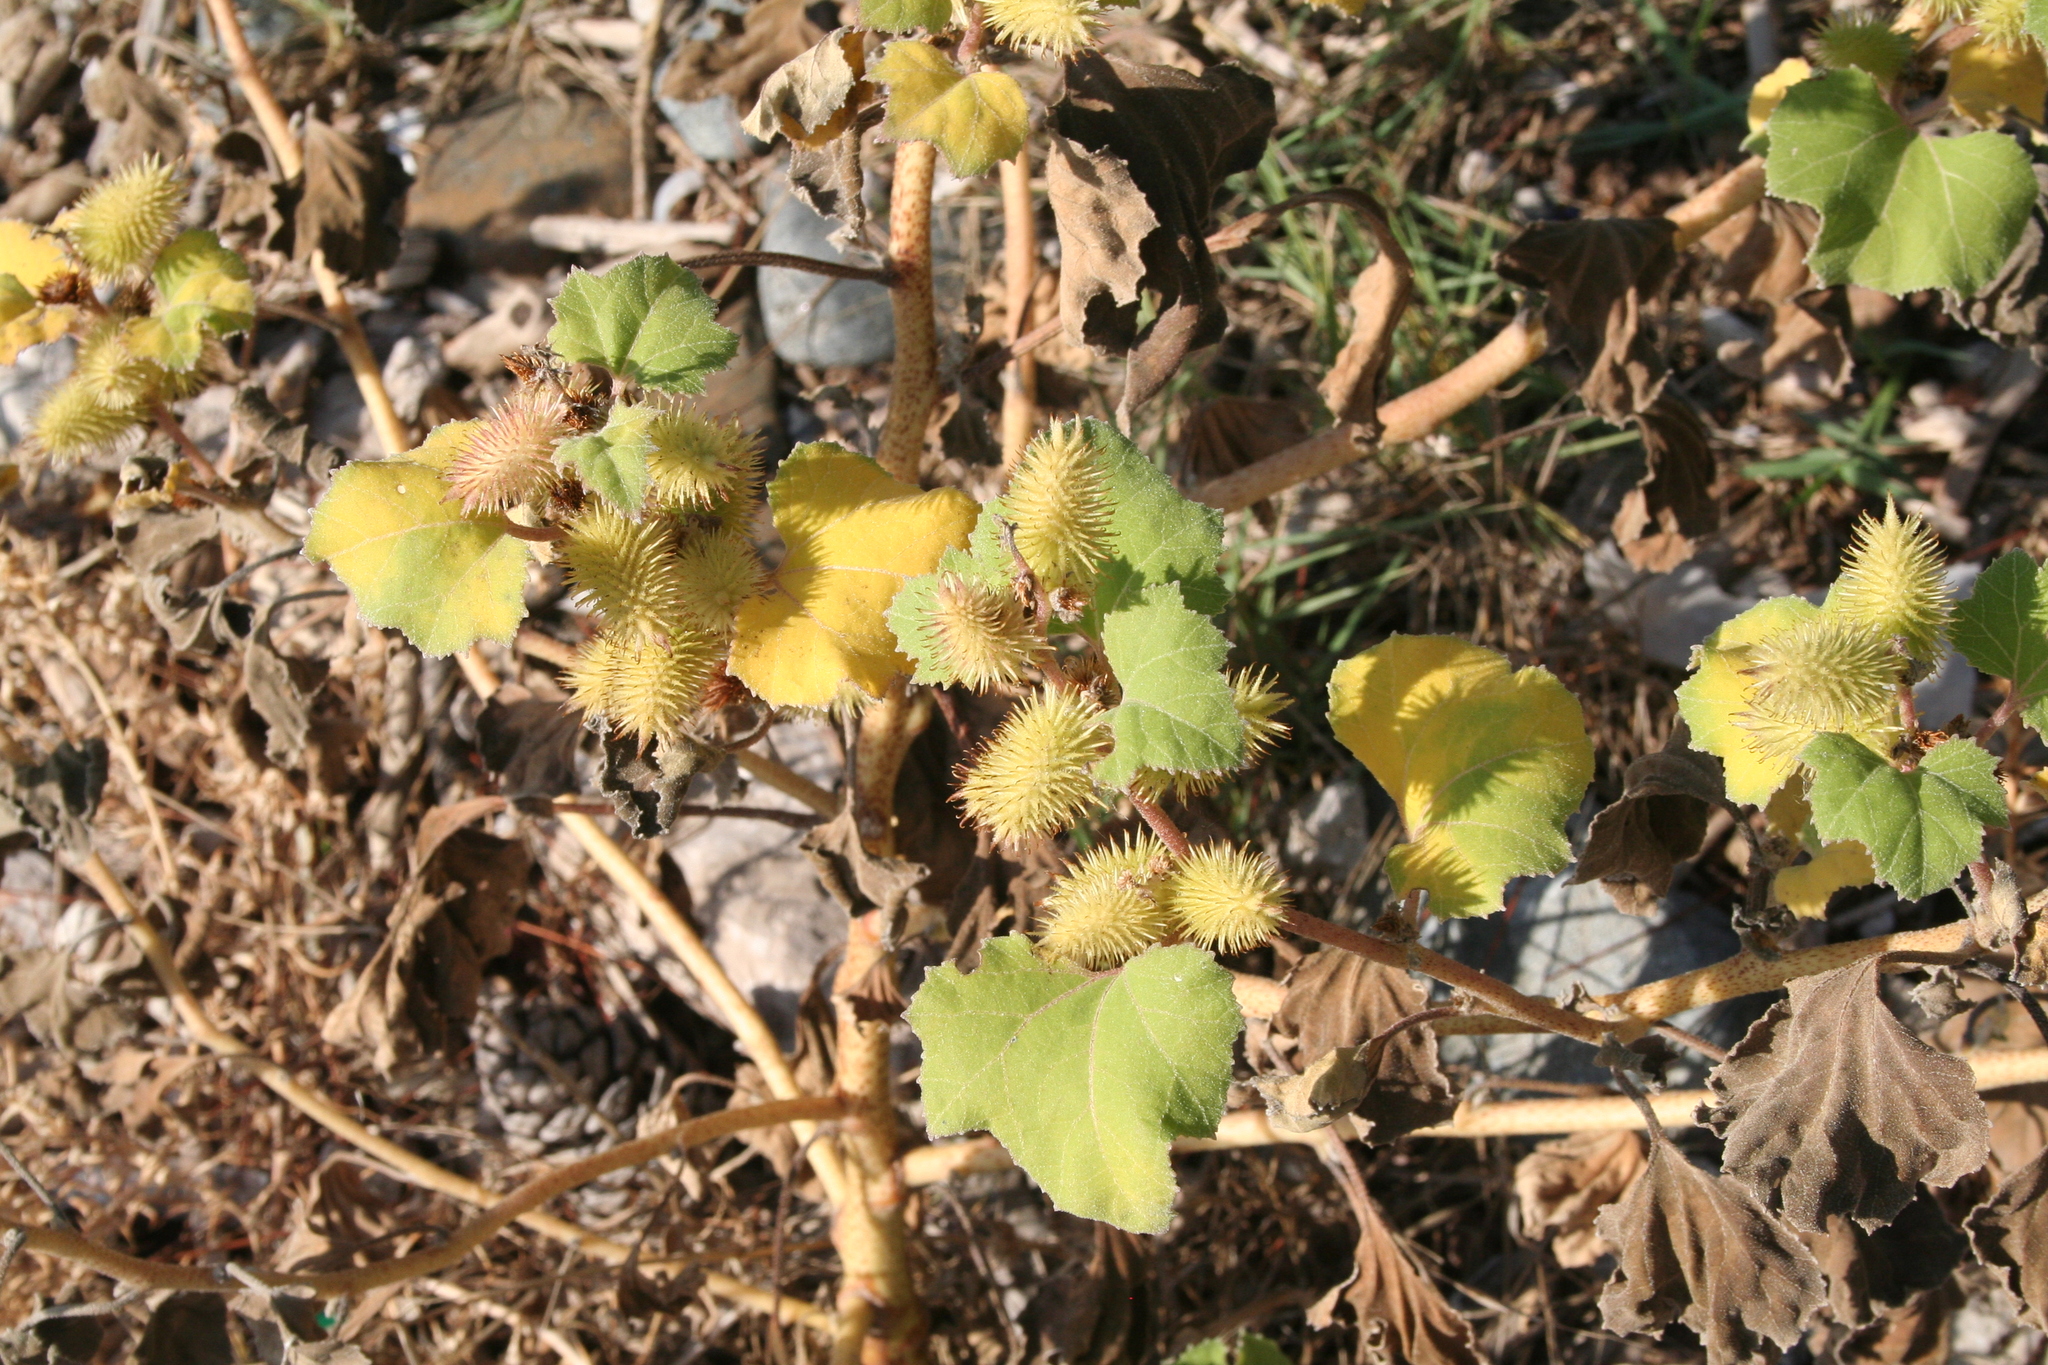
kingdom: Plantae
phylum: Tracheophyta
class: Magnoliopsida
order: Asterales
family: Asteraceae
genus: Xanthium
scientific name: Xanthium strumarium
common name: Rough cocklebur
